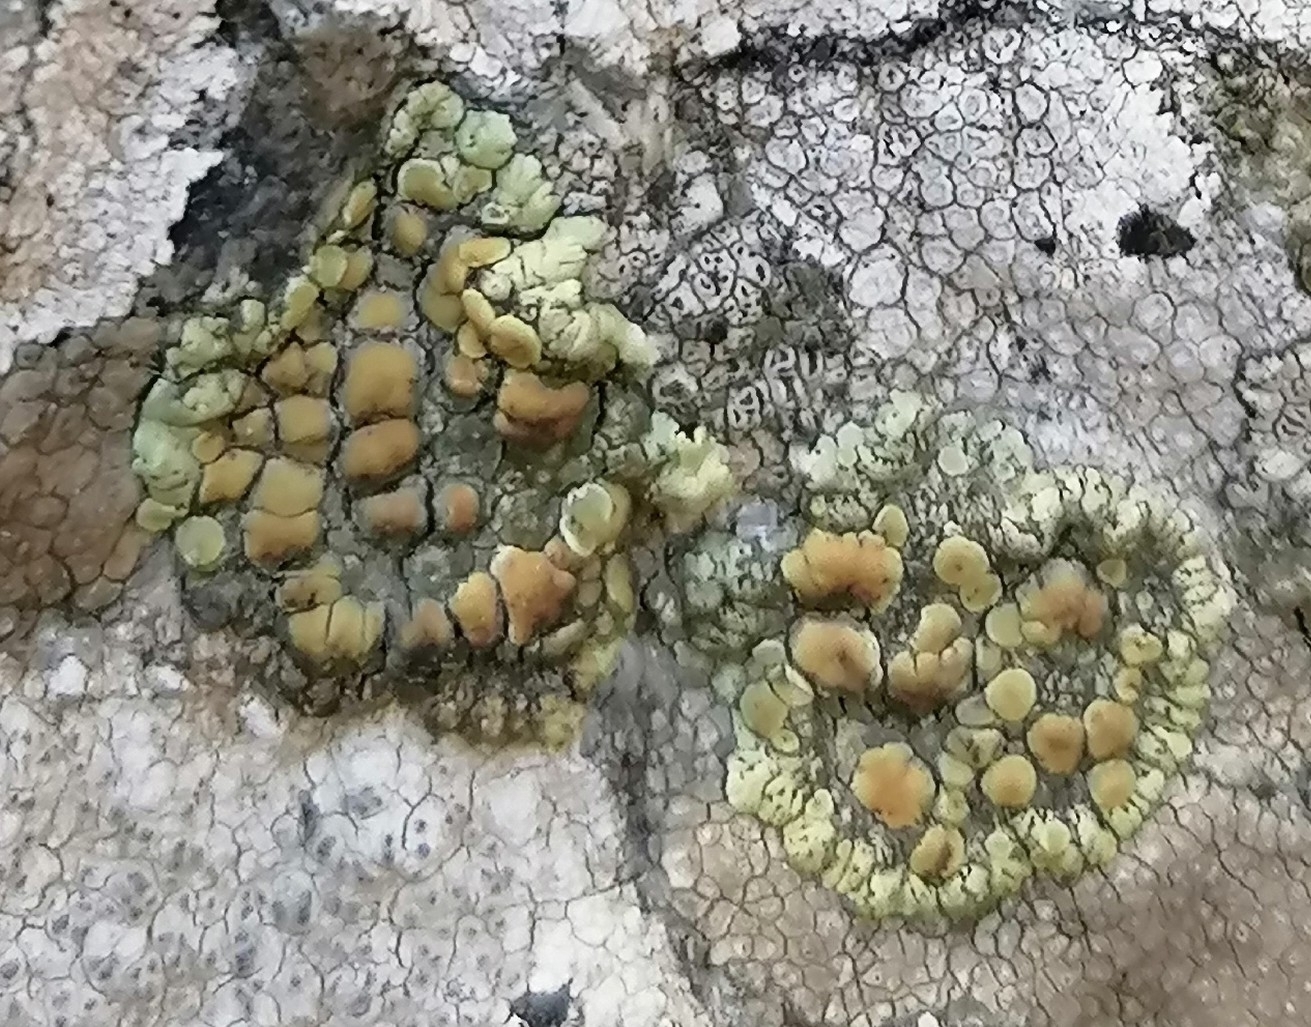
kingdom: Fungi
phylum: Ascomycota
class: Lecanoromycetes
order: Lecanorales
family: Lecanoraceae
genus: Protoparmeliopsis
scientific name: Protoparmeliopsis muralis
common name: Stonewall rim lichen
